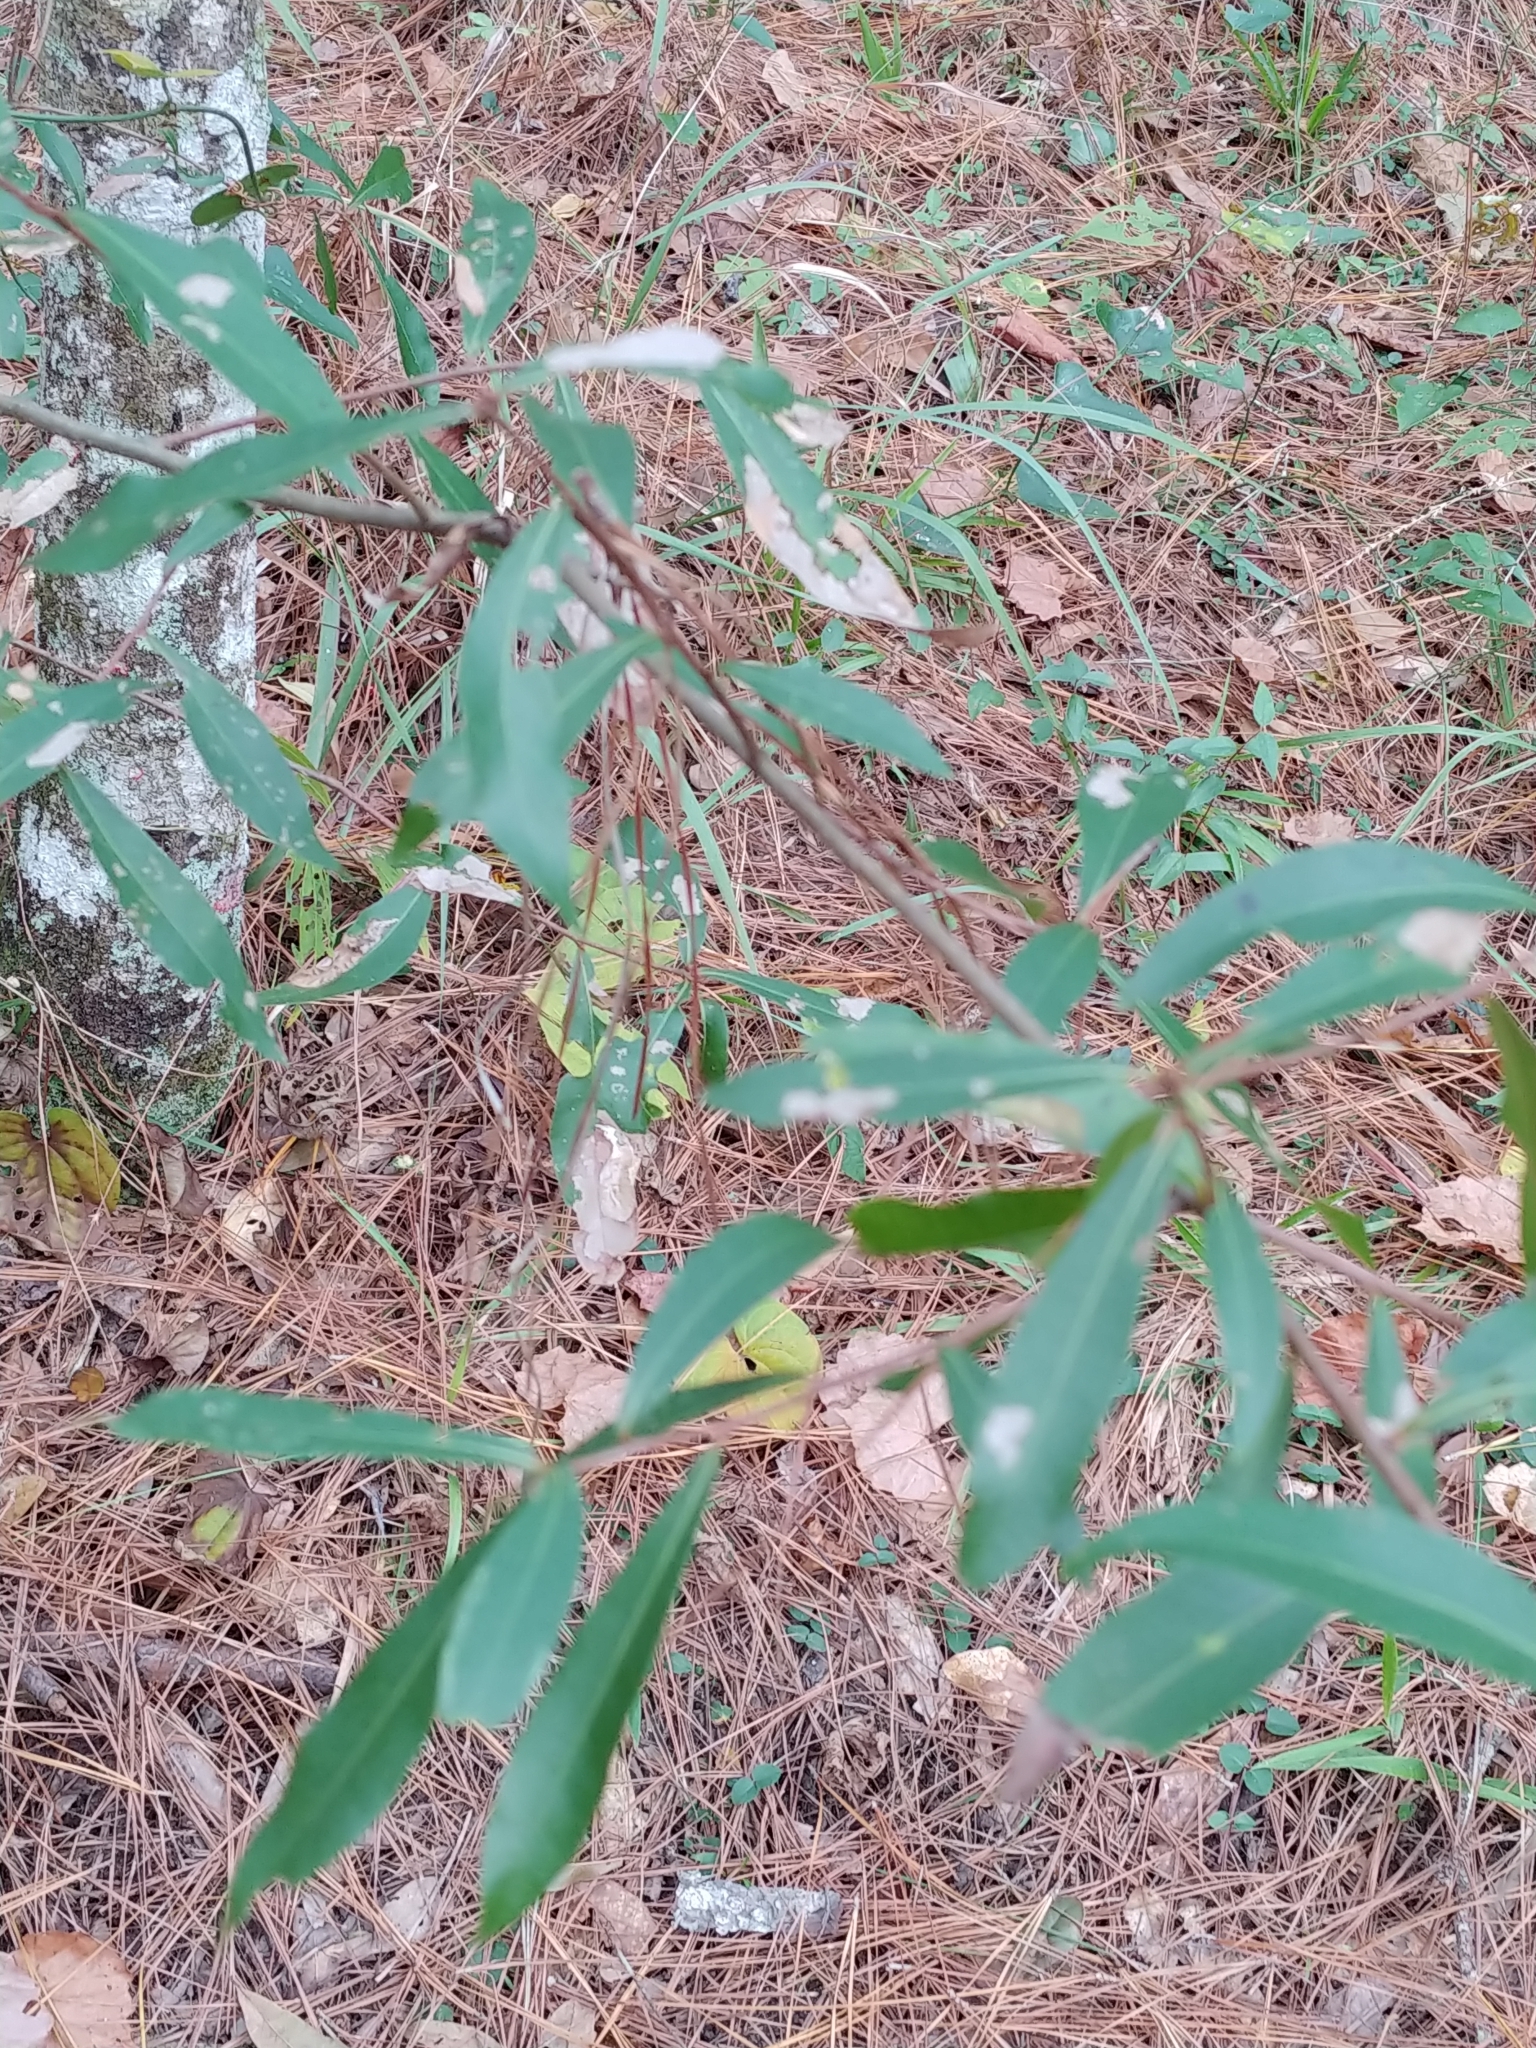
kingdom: Plantae
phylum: Tracheophyta
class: Magnoliopsida
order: Fagales
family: Fagaceae
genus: Quercus
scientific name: Quercus hemisphaerica
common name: Darlington oak
